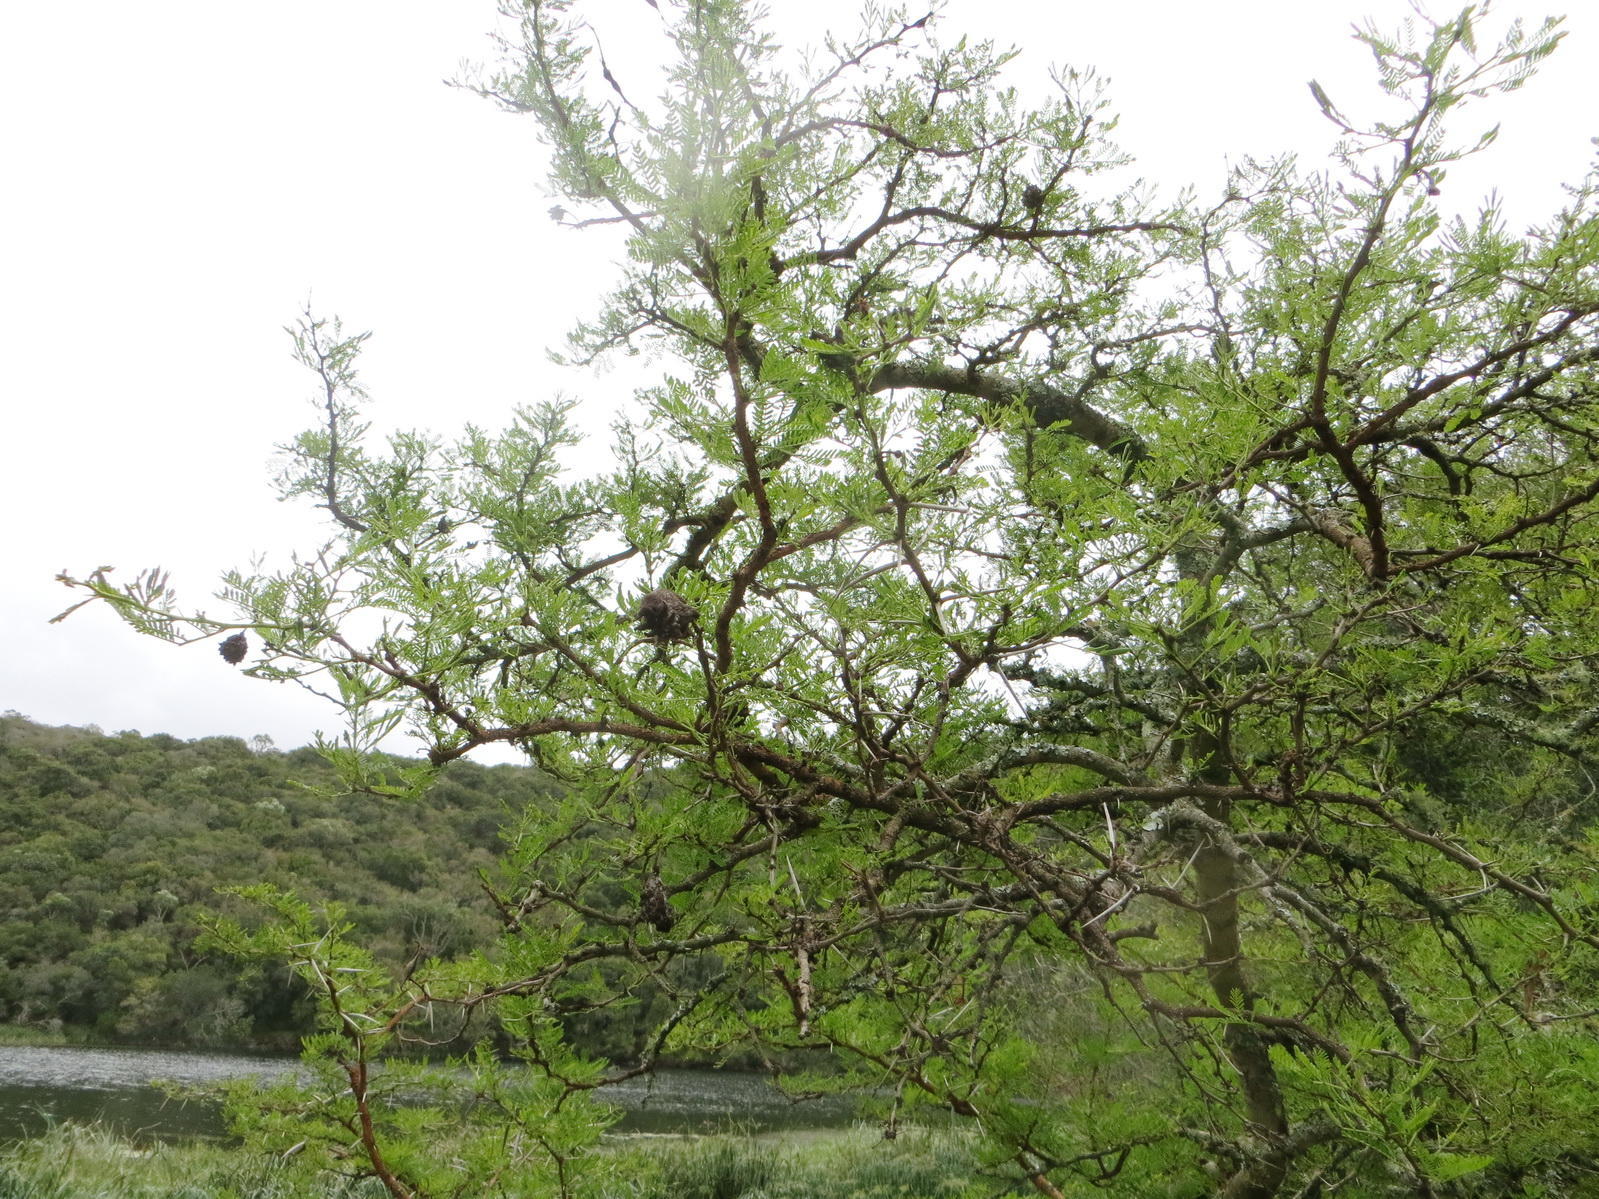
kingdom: Plantae
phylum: Tracheophyta
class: Magnoliopsida
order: Fabales
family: Fabaceae
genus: Vachellia
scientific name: Vachellia karroo
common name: Sweet thorn
